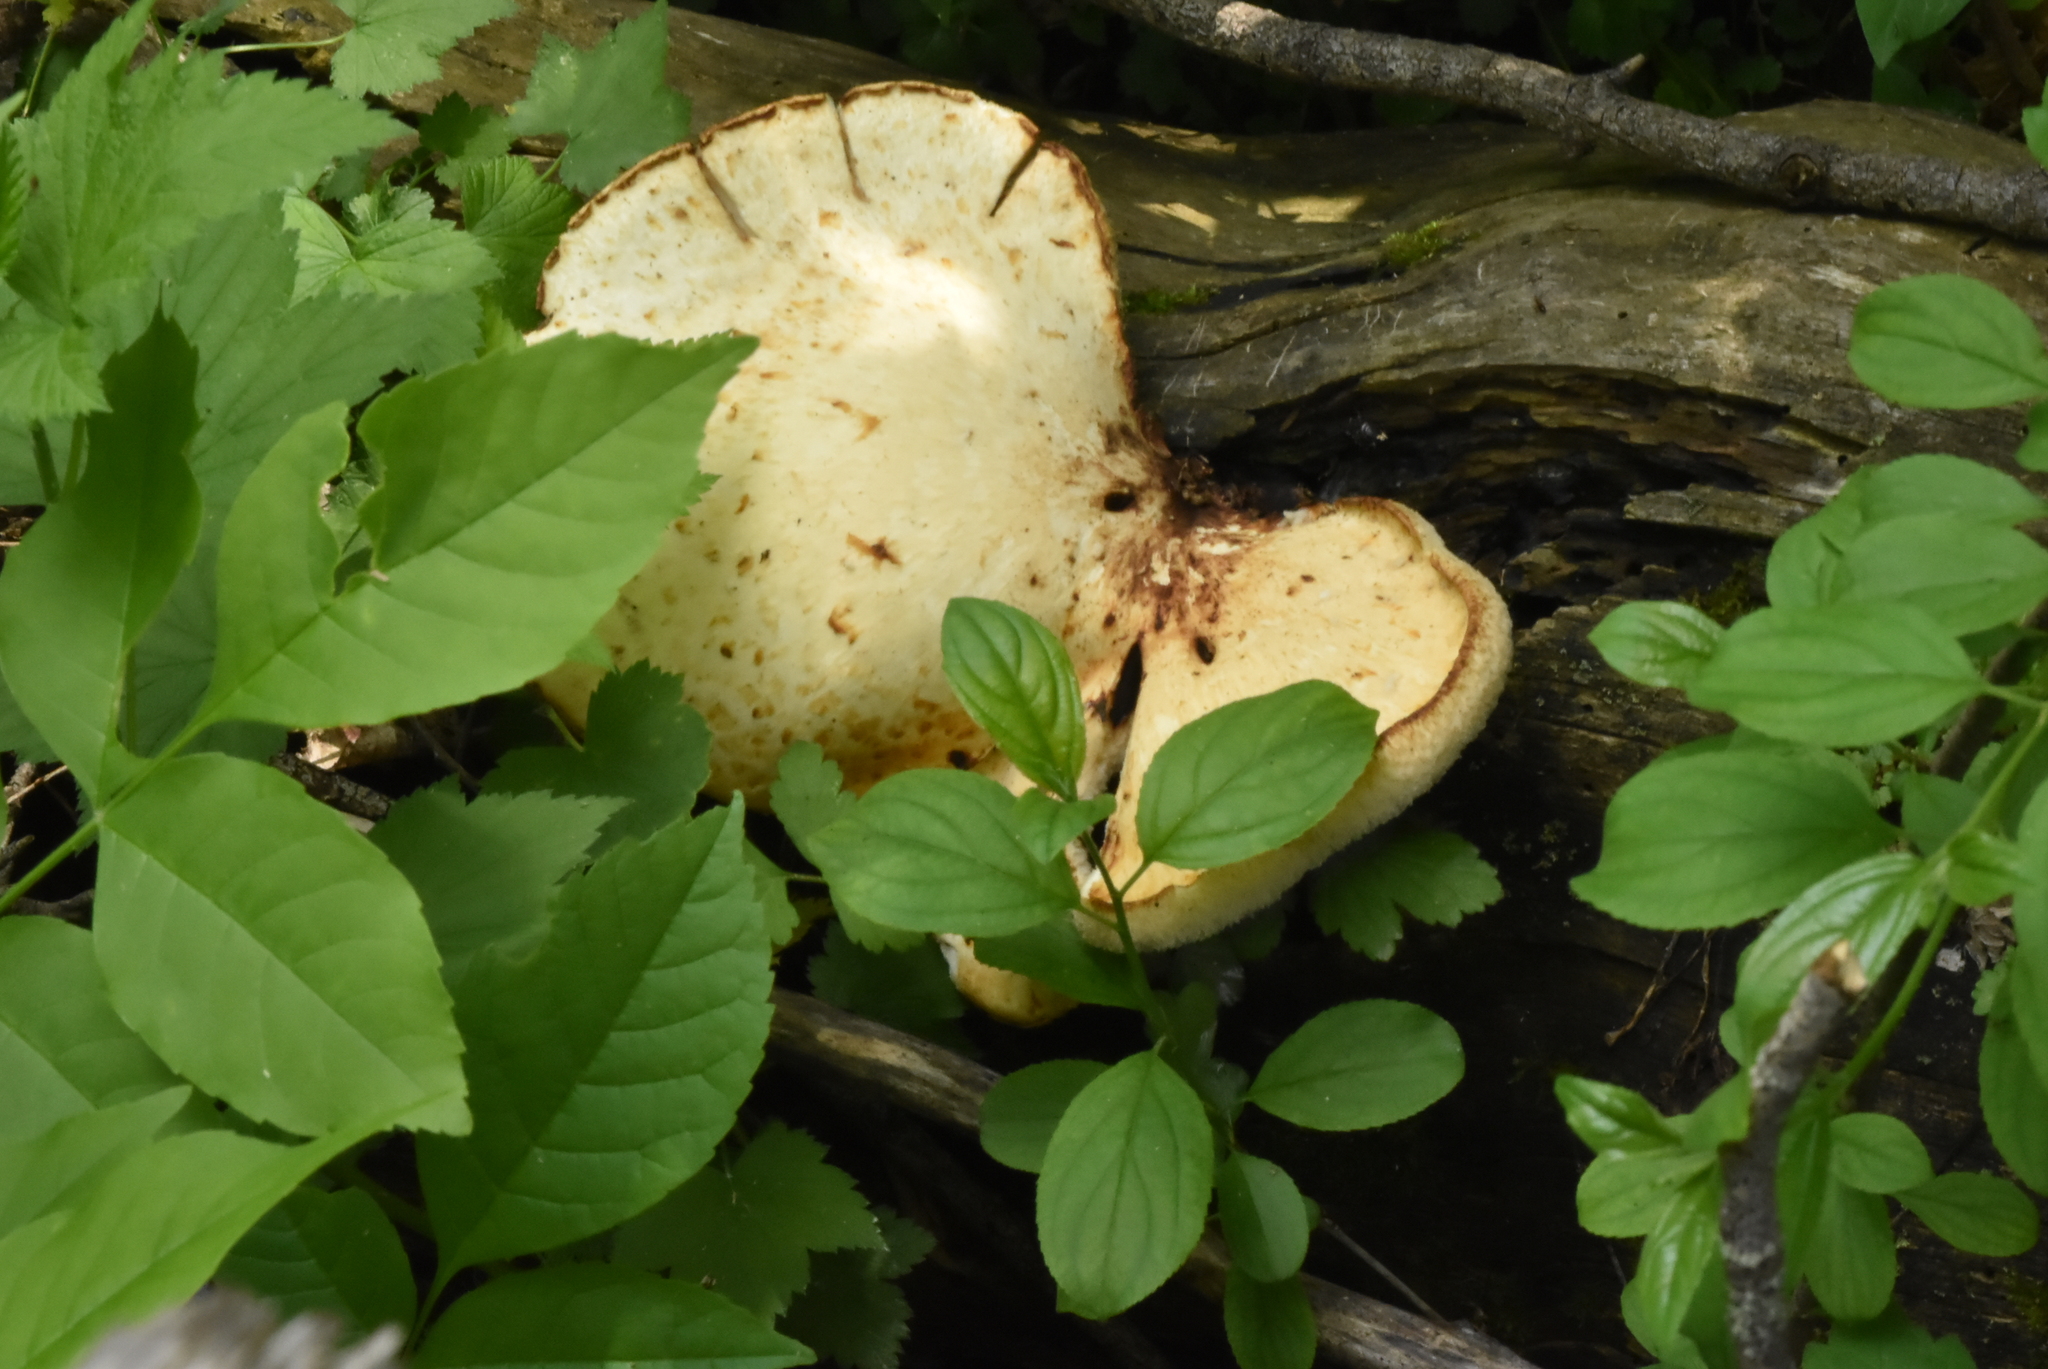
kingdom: Fungi
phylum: Basidiomycota
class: Agaricomycetes
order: Polyporales
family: Polyporaceae
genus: Cerioporus
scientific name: Cerioporus squamosus
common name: Dryad's saddle
